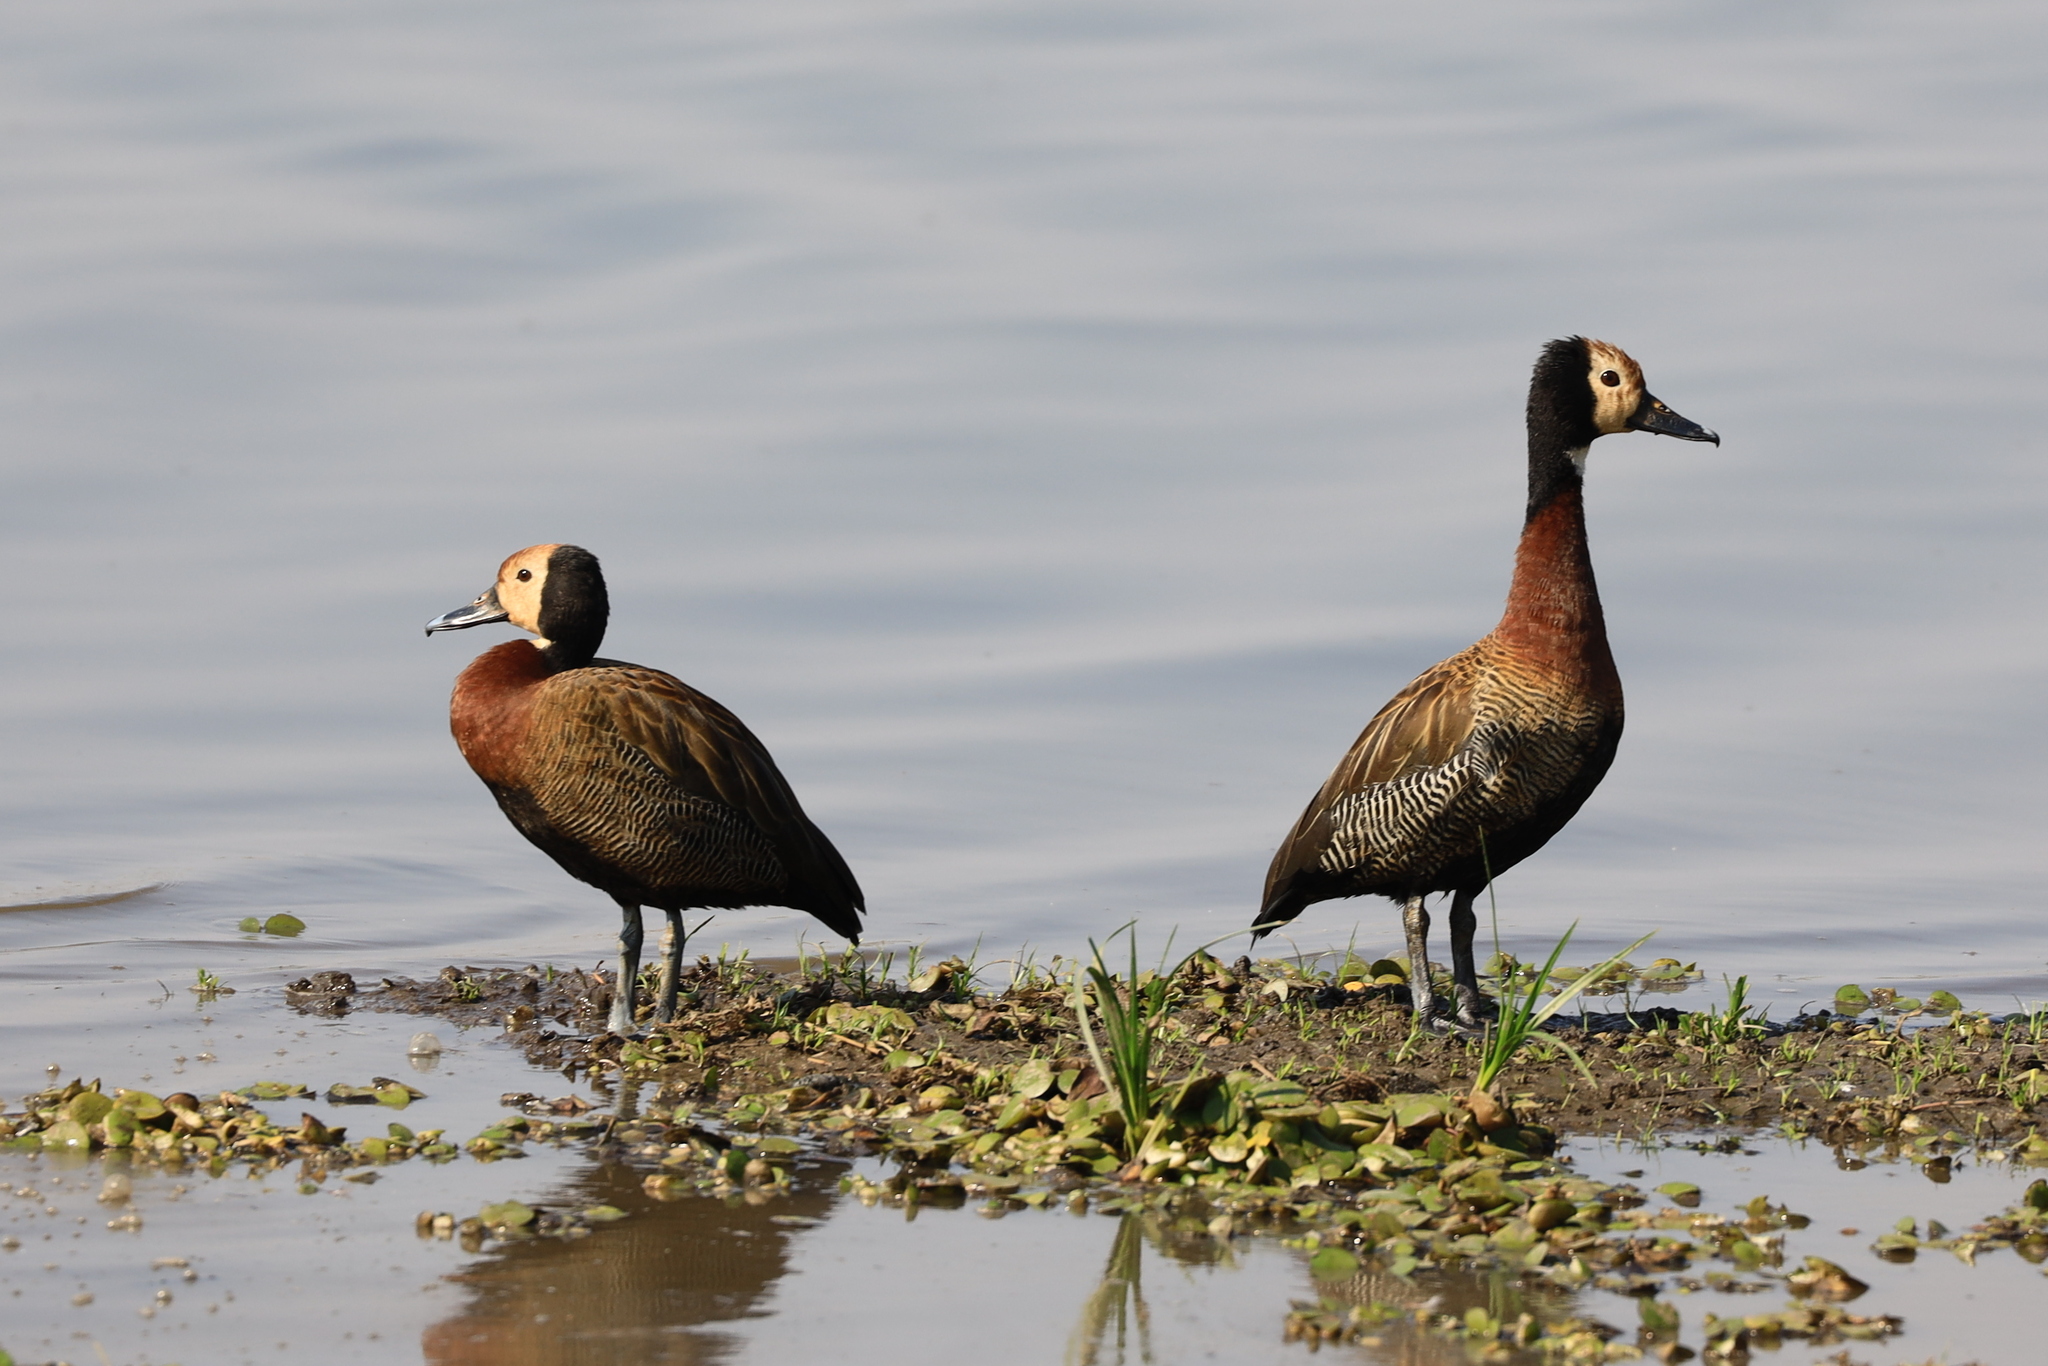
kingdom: Animalia
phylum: Chordata
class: Aves
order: Anseriformes
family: Anatidae
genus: Dendrocygna
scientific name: Dendrocygna viduata
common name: White-faced whistling duck
